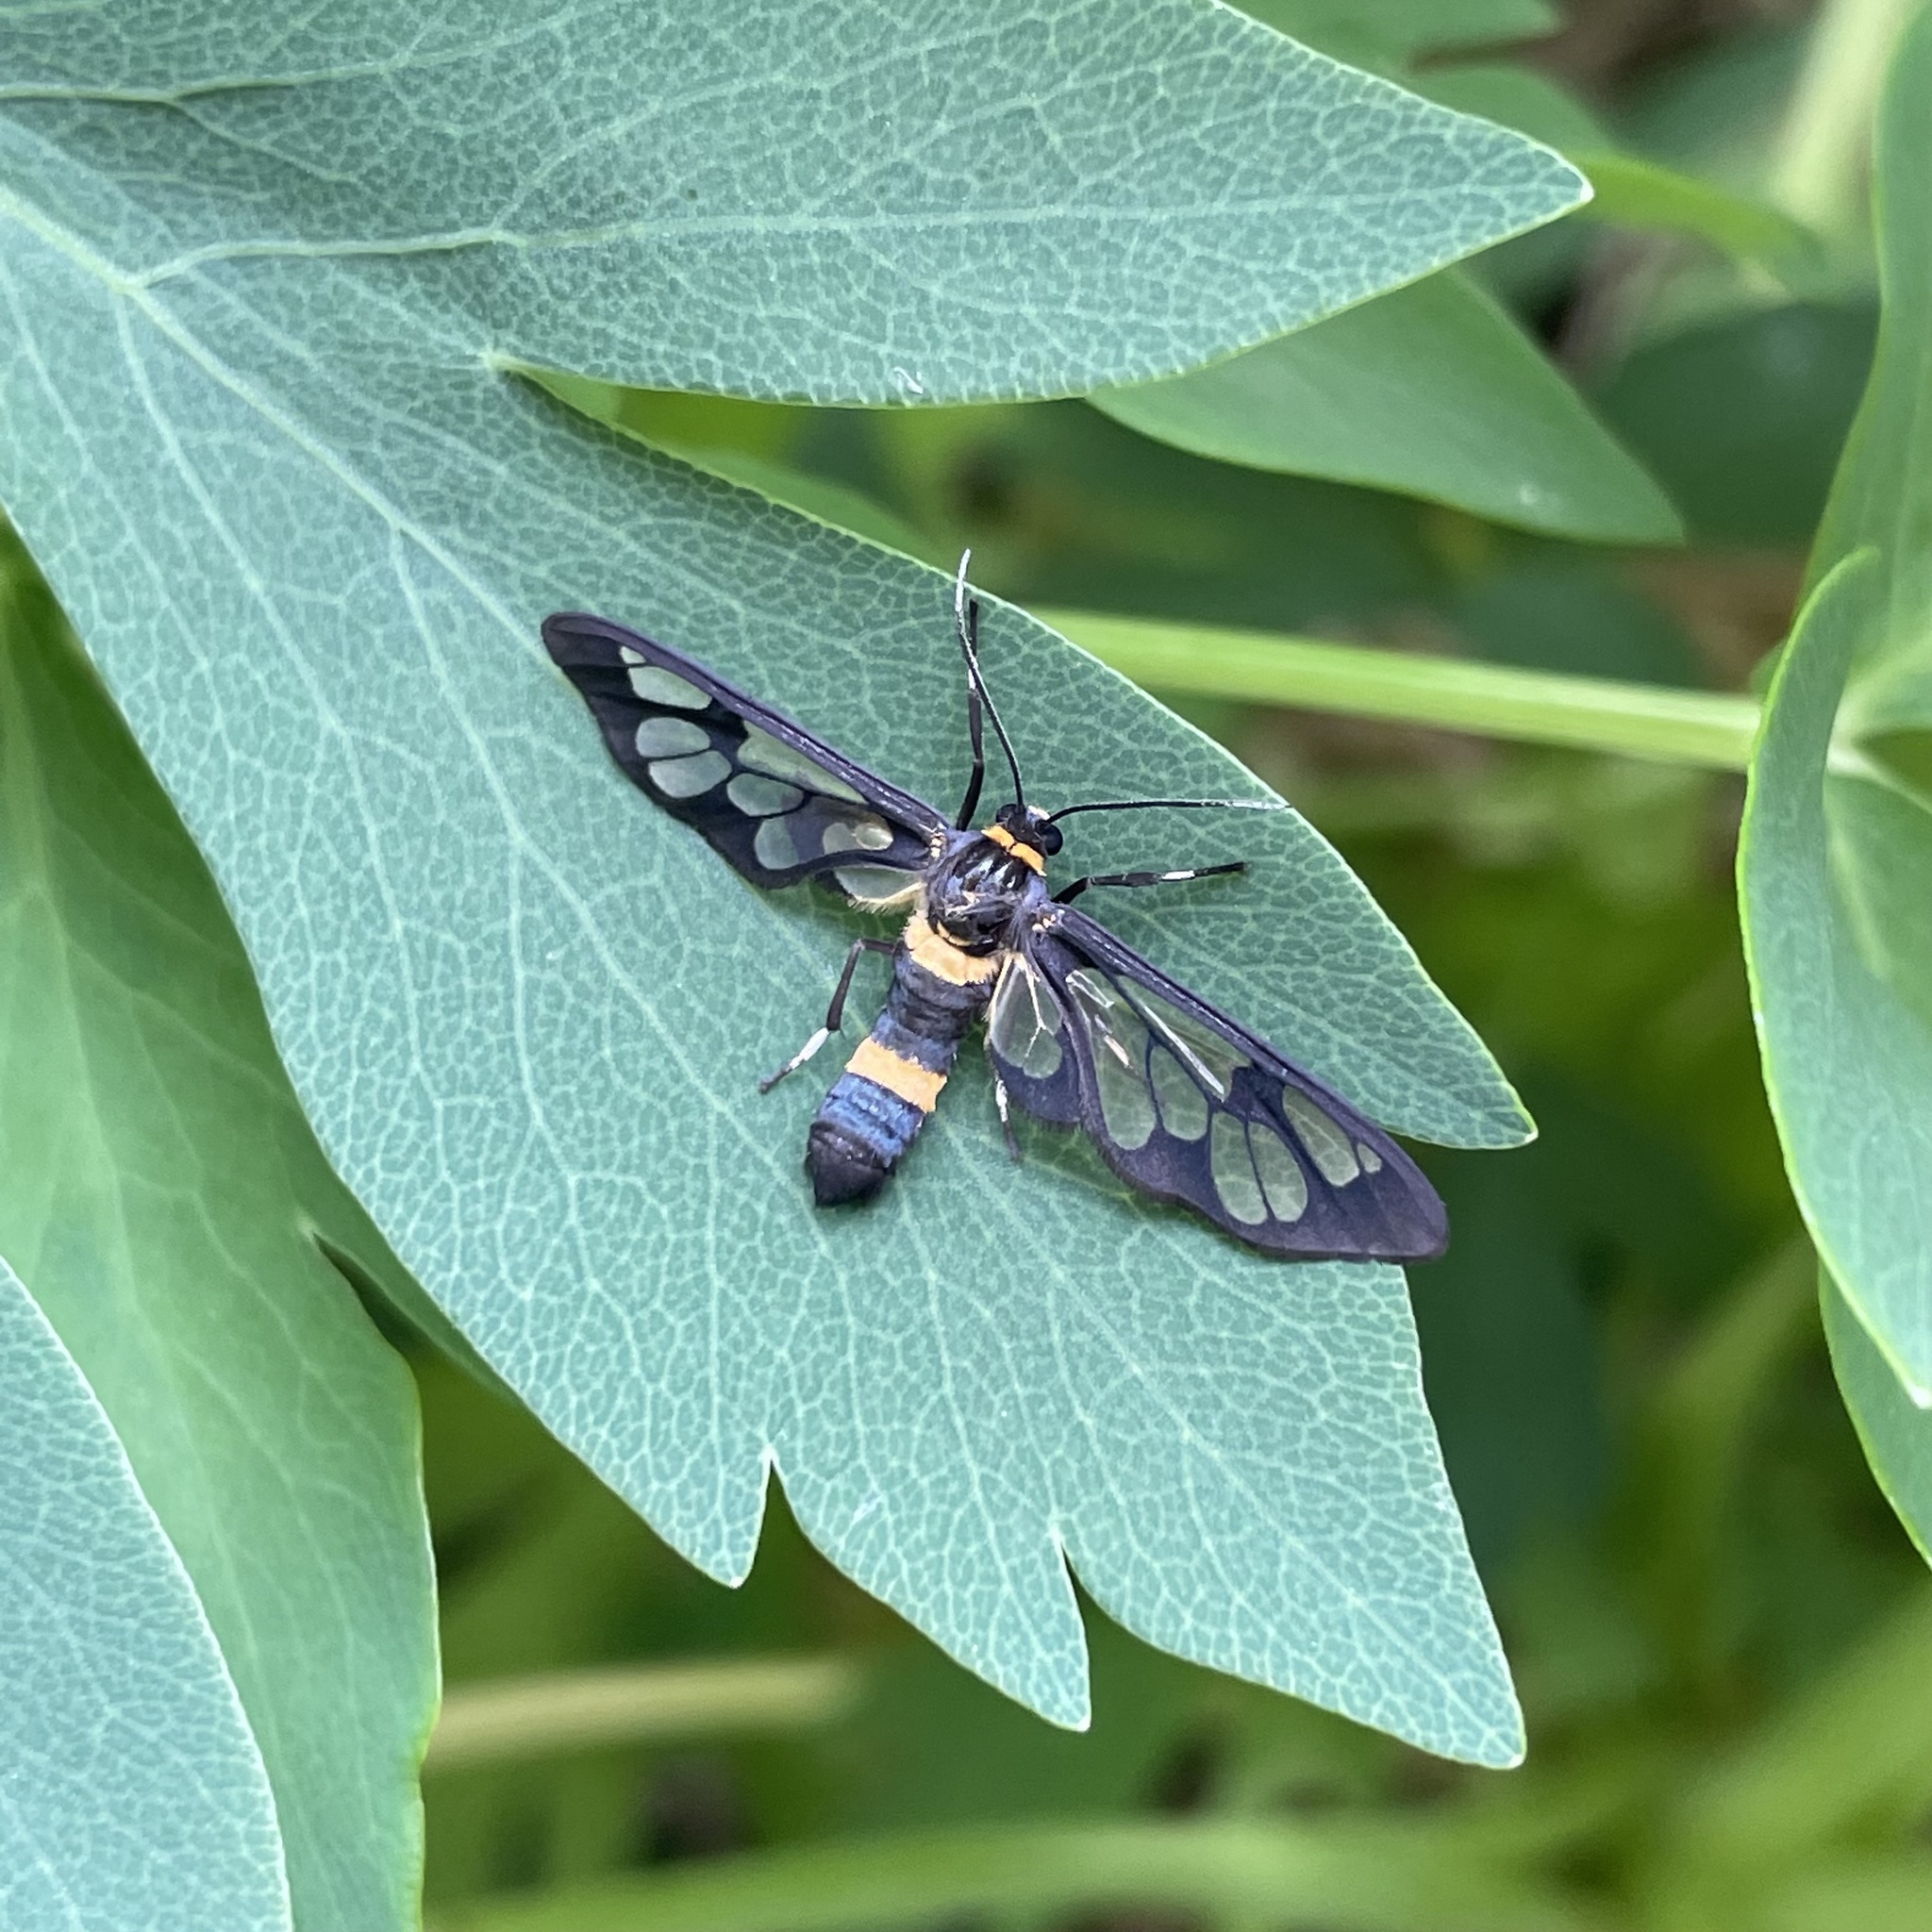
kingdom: Animalia
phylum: Arthropoda
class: Insecta
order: Lepidoptera
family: Erebidae
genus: Syntomoides
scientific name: Syntomoides imaon
